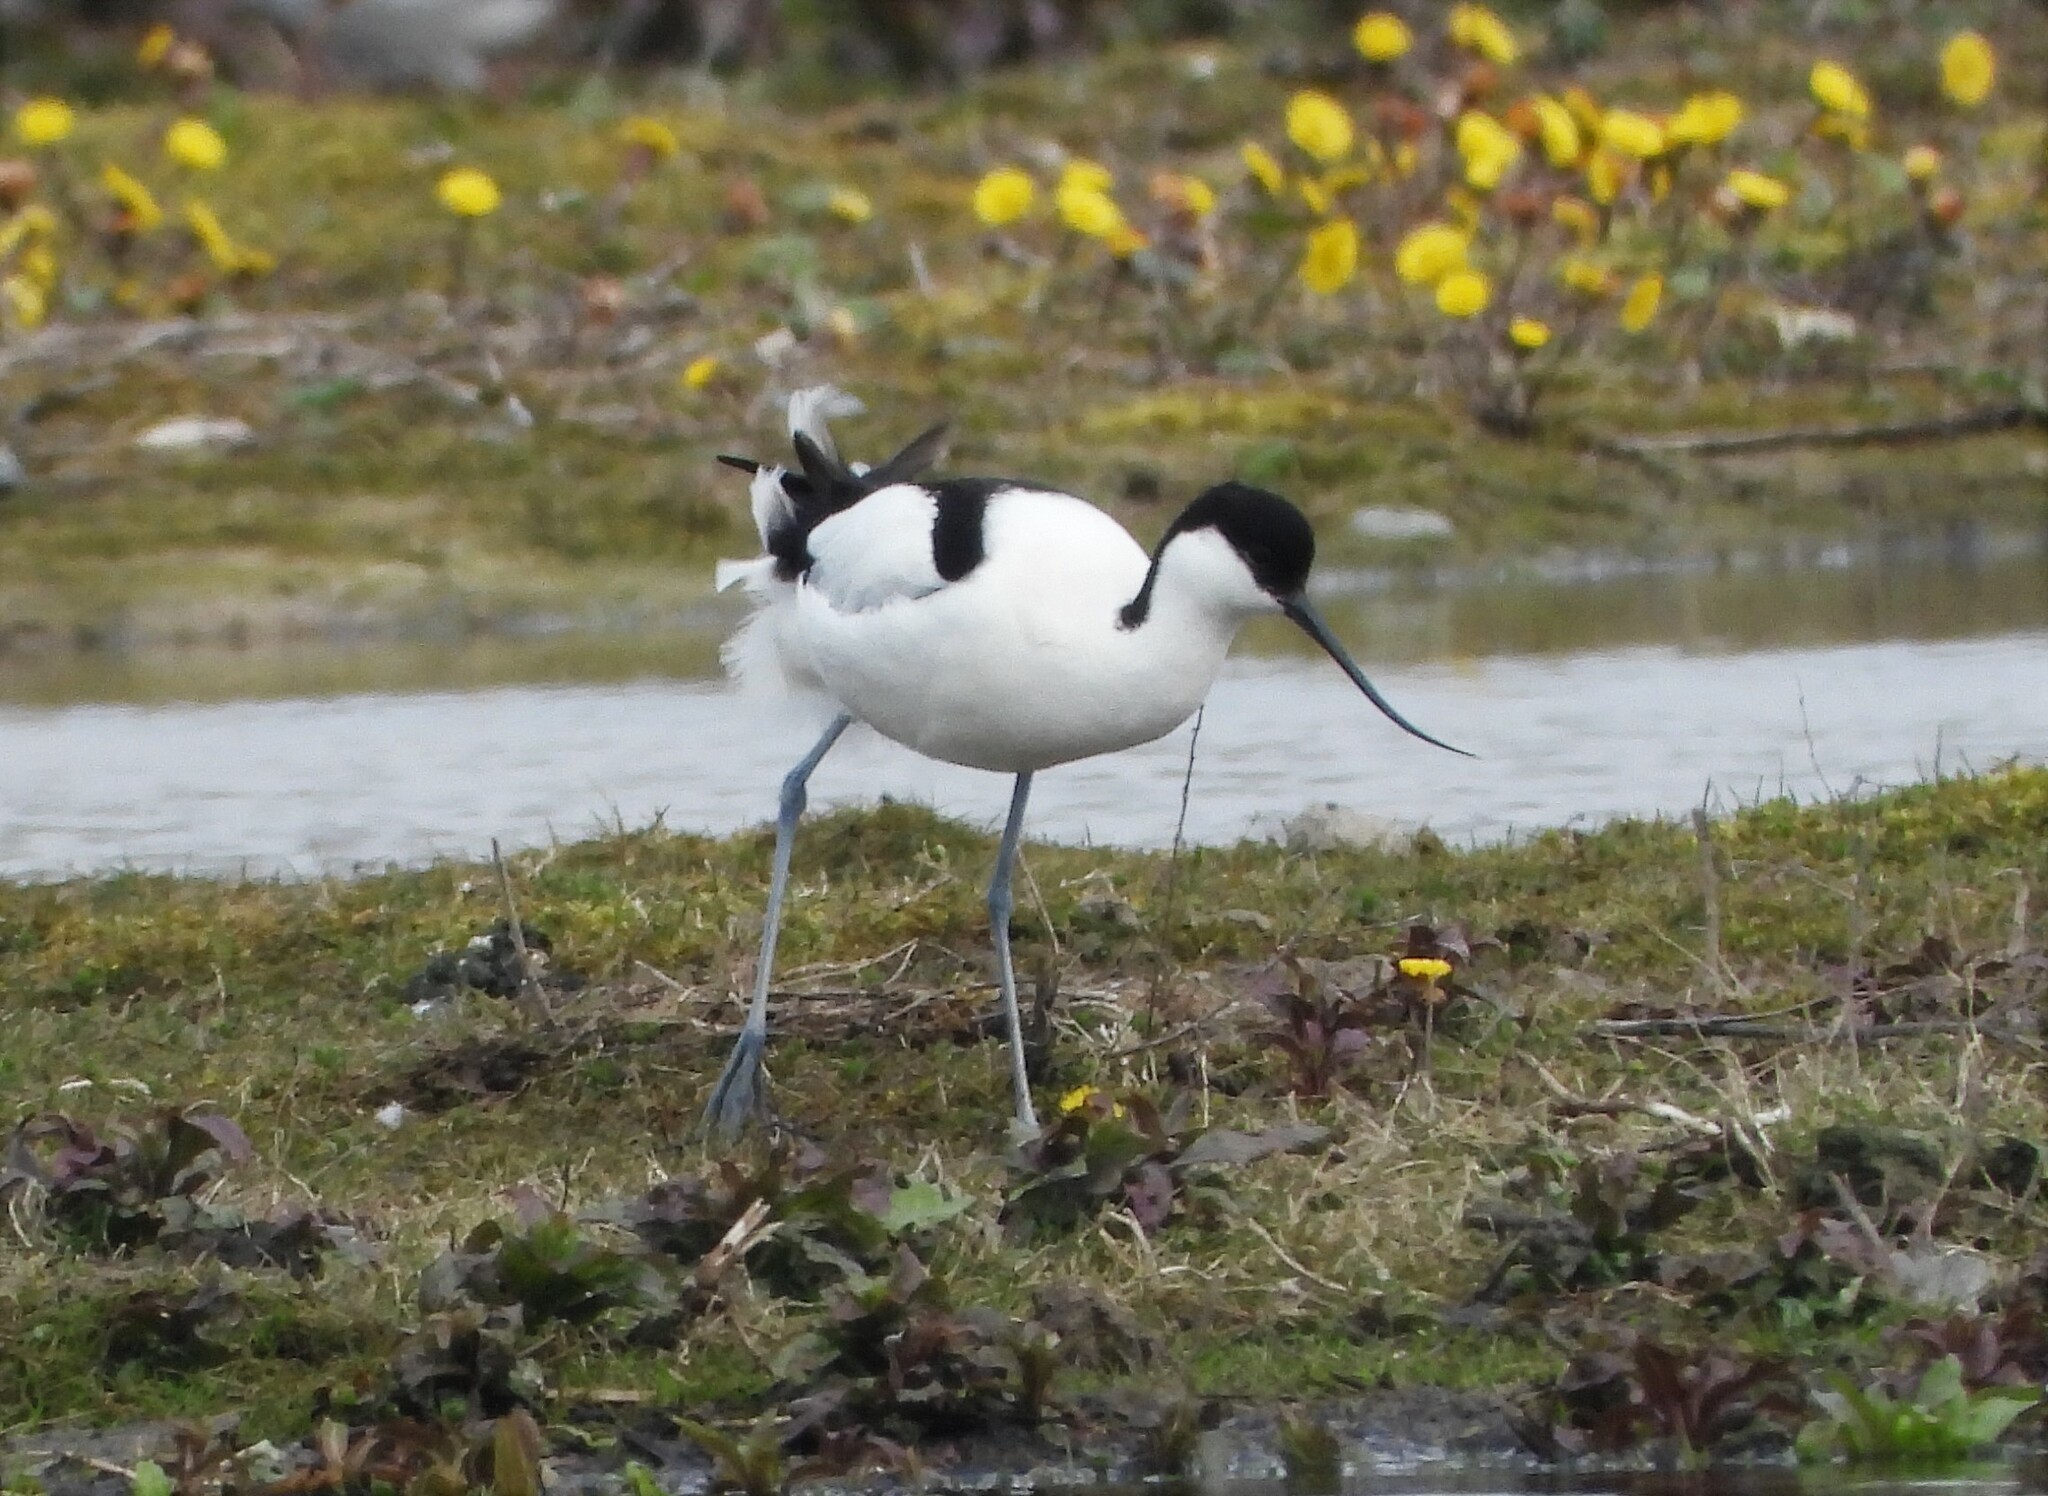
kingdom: Animalia
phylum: Chordata
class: Aves
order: Charadriiformes
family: Recurvirostridae
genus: Recurvirostra
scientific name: Recurvirostra avosetta
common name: Pied avocet
